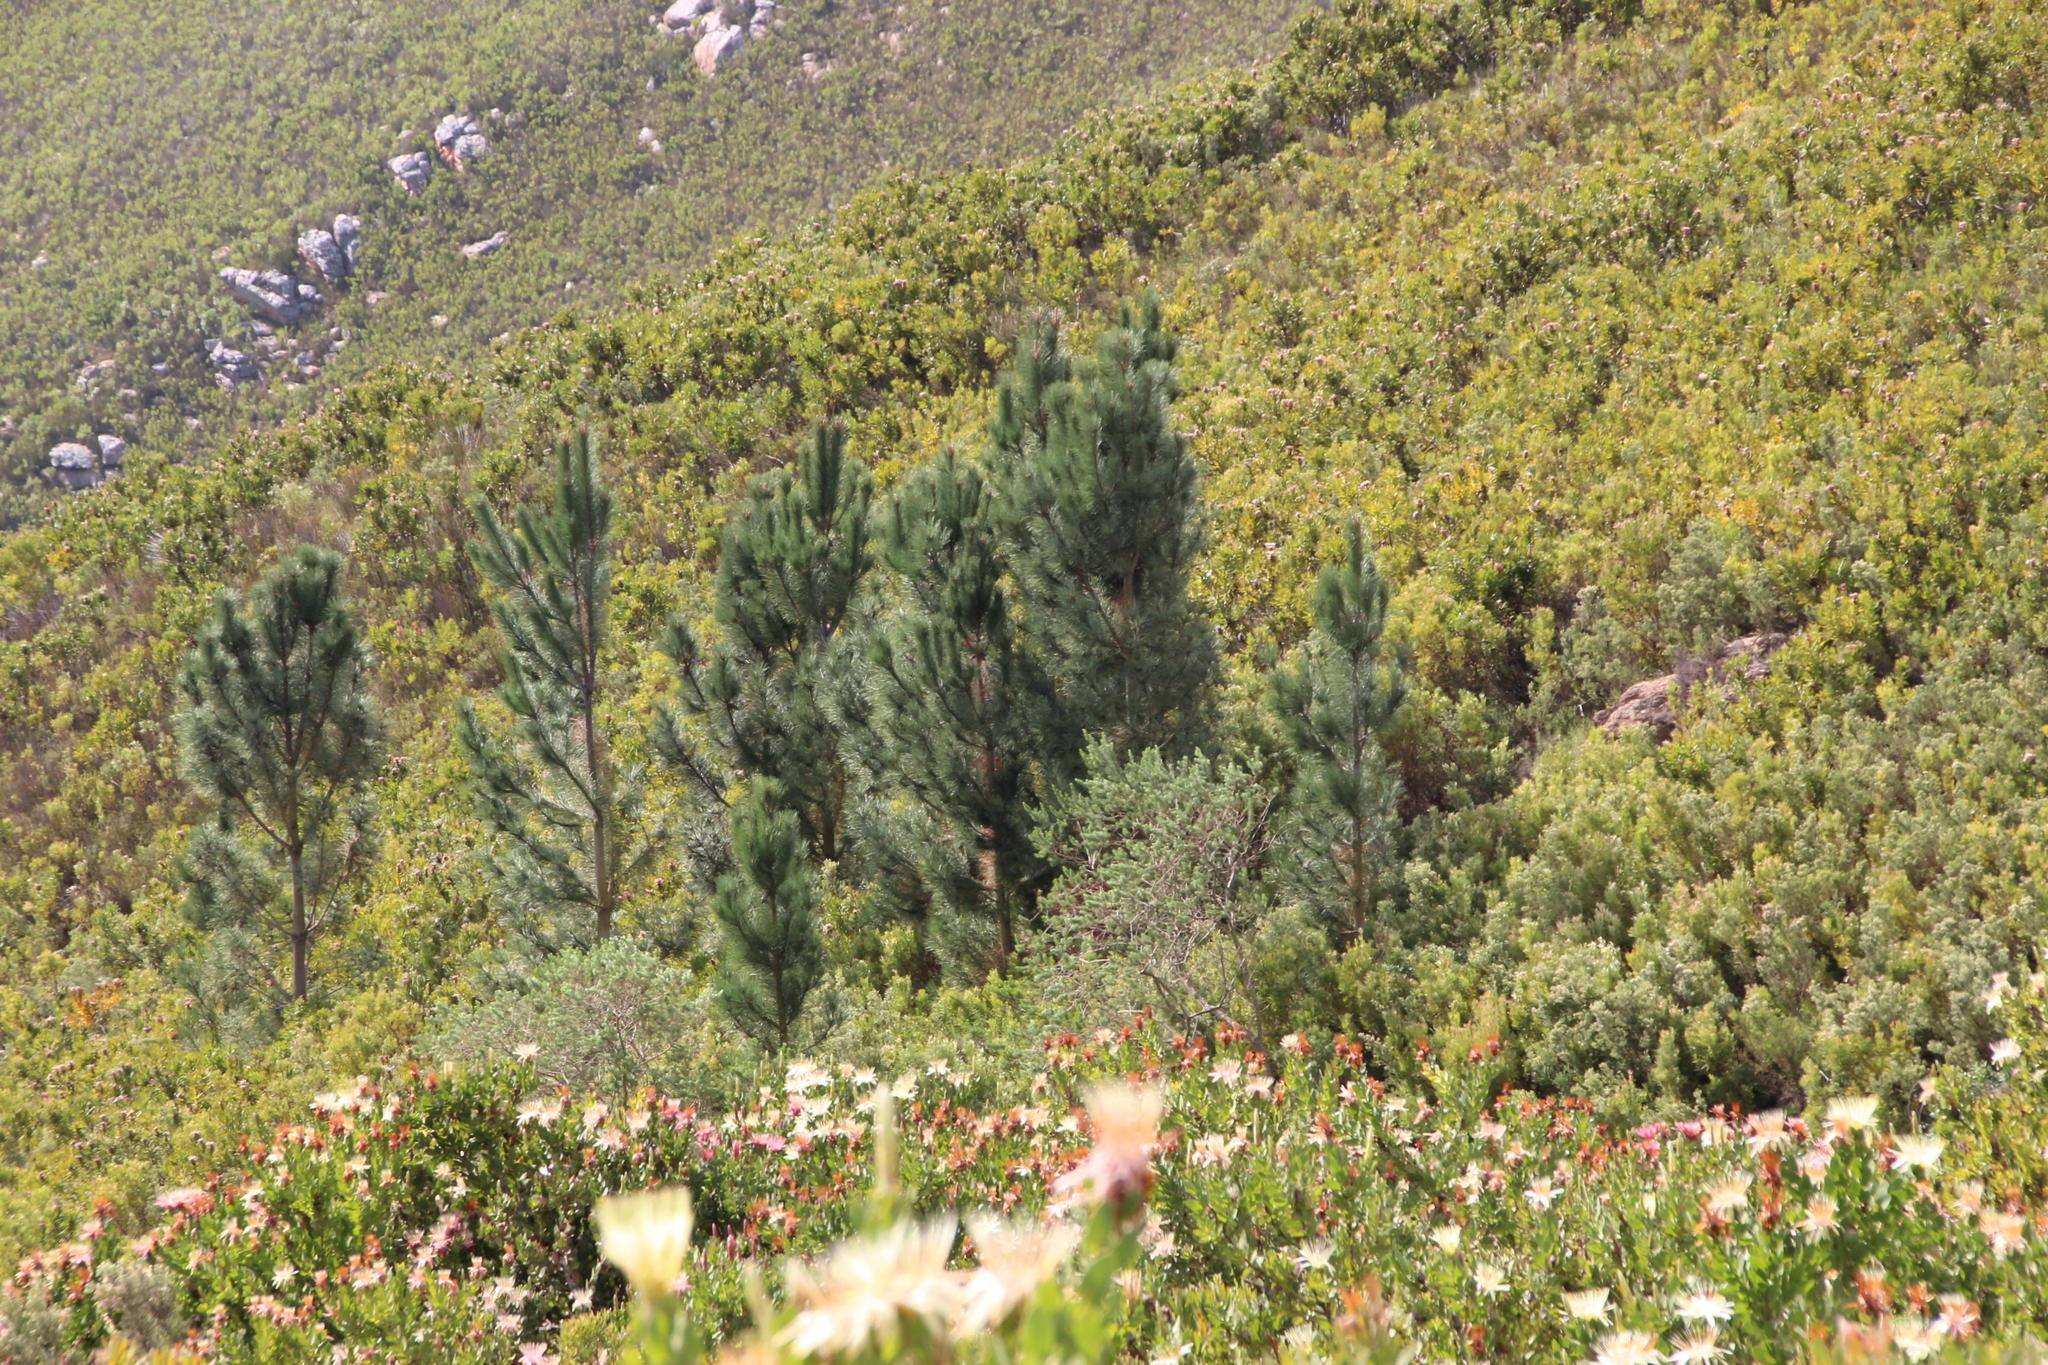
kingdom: Plantae
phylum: Tracheophyta
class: Pinopsida
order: Pinales
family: Pinaceae
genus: Pinus
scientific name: Pinus pinaster
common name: Maritime pine
